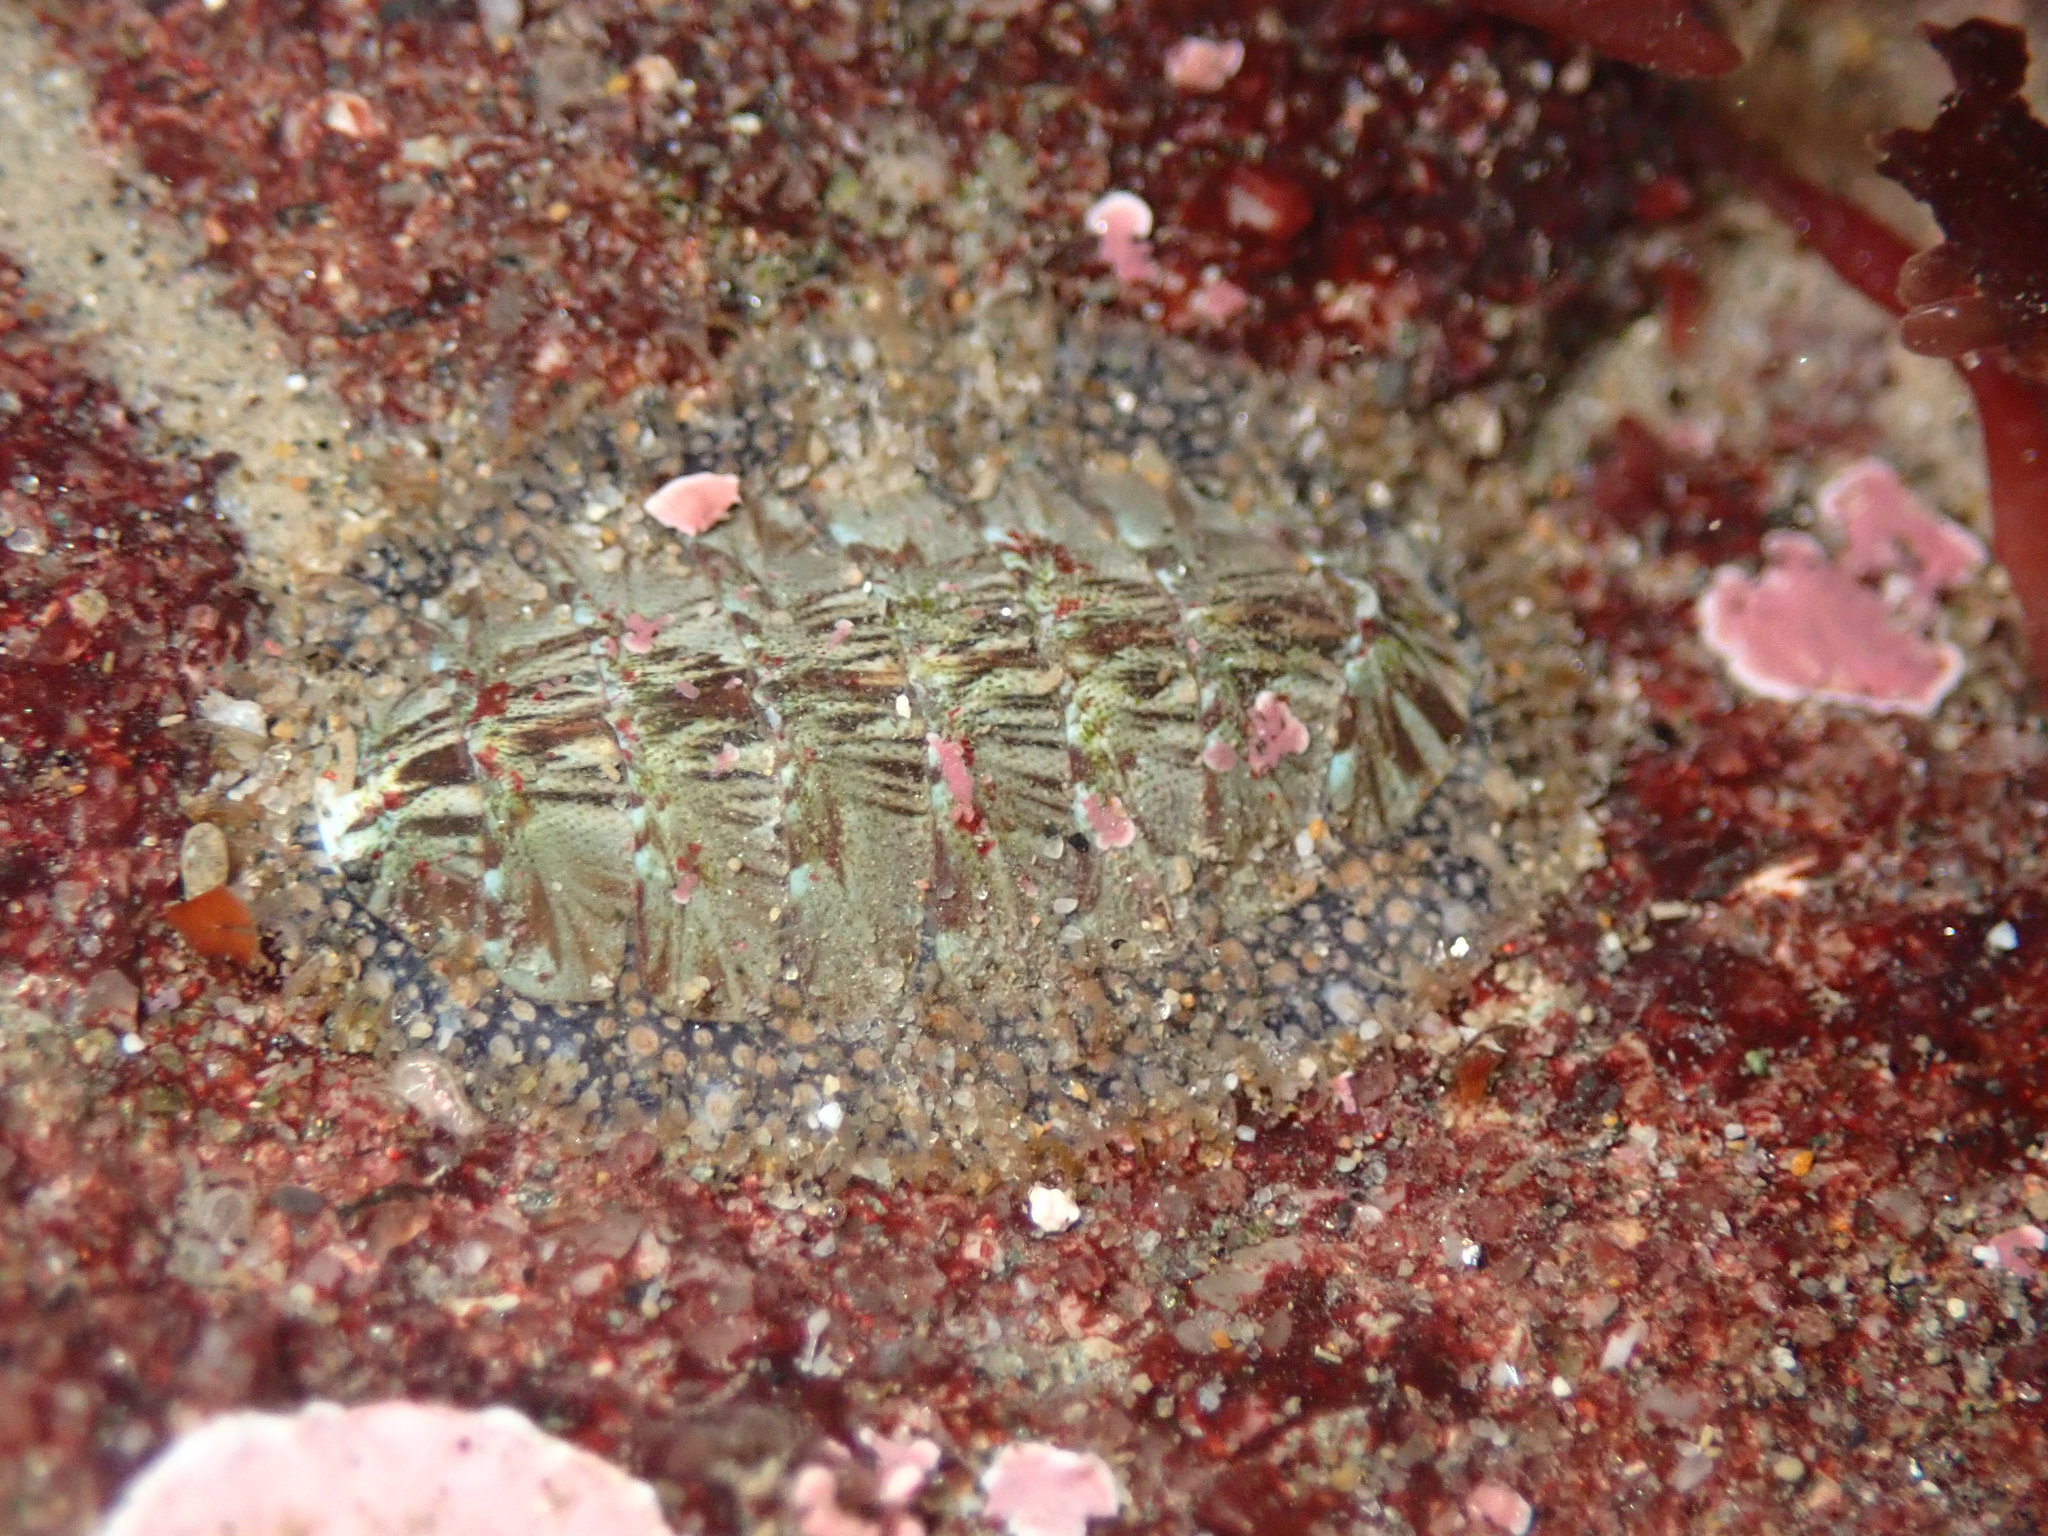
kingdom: Animalia
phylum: Mollusca
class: Polyplacophora
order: Chitonida
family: Mopaliidae
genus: Mopalia
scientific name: Mopalia lignosa
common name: Woody chiton
